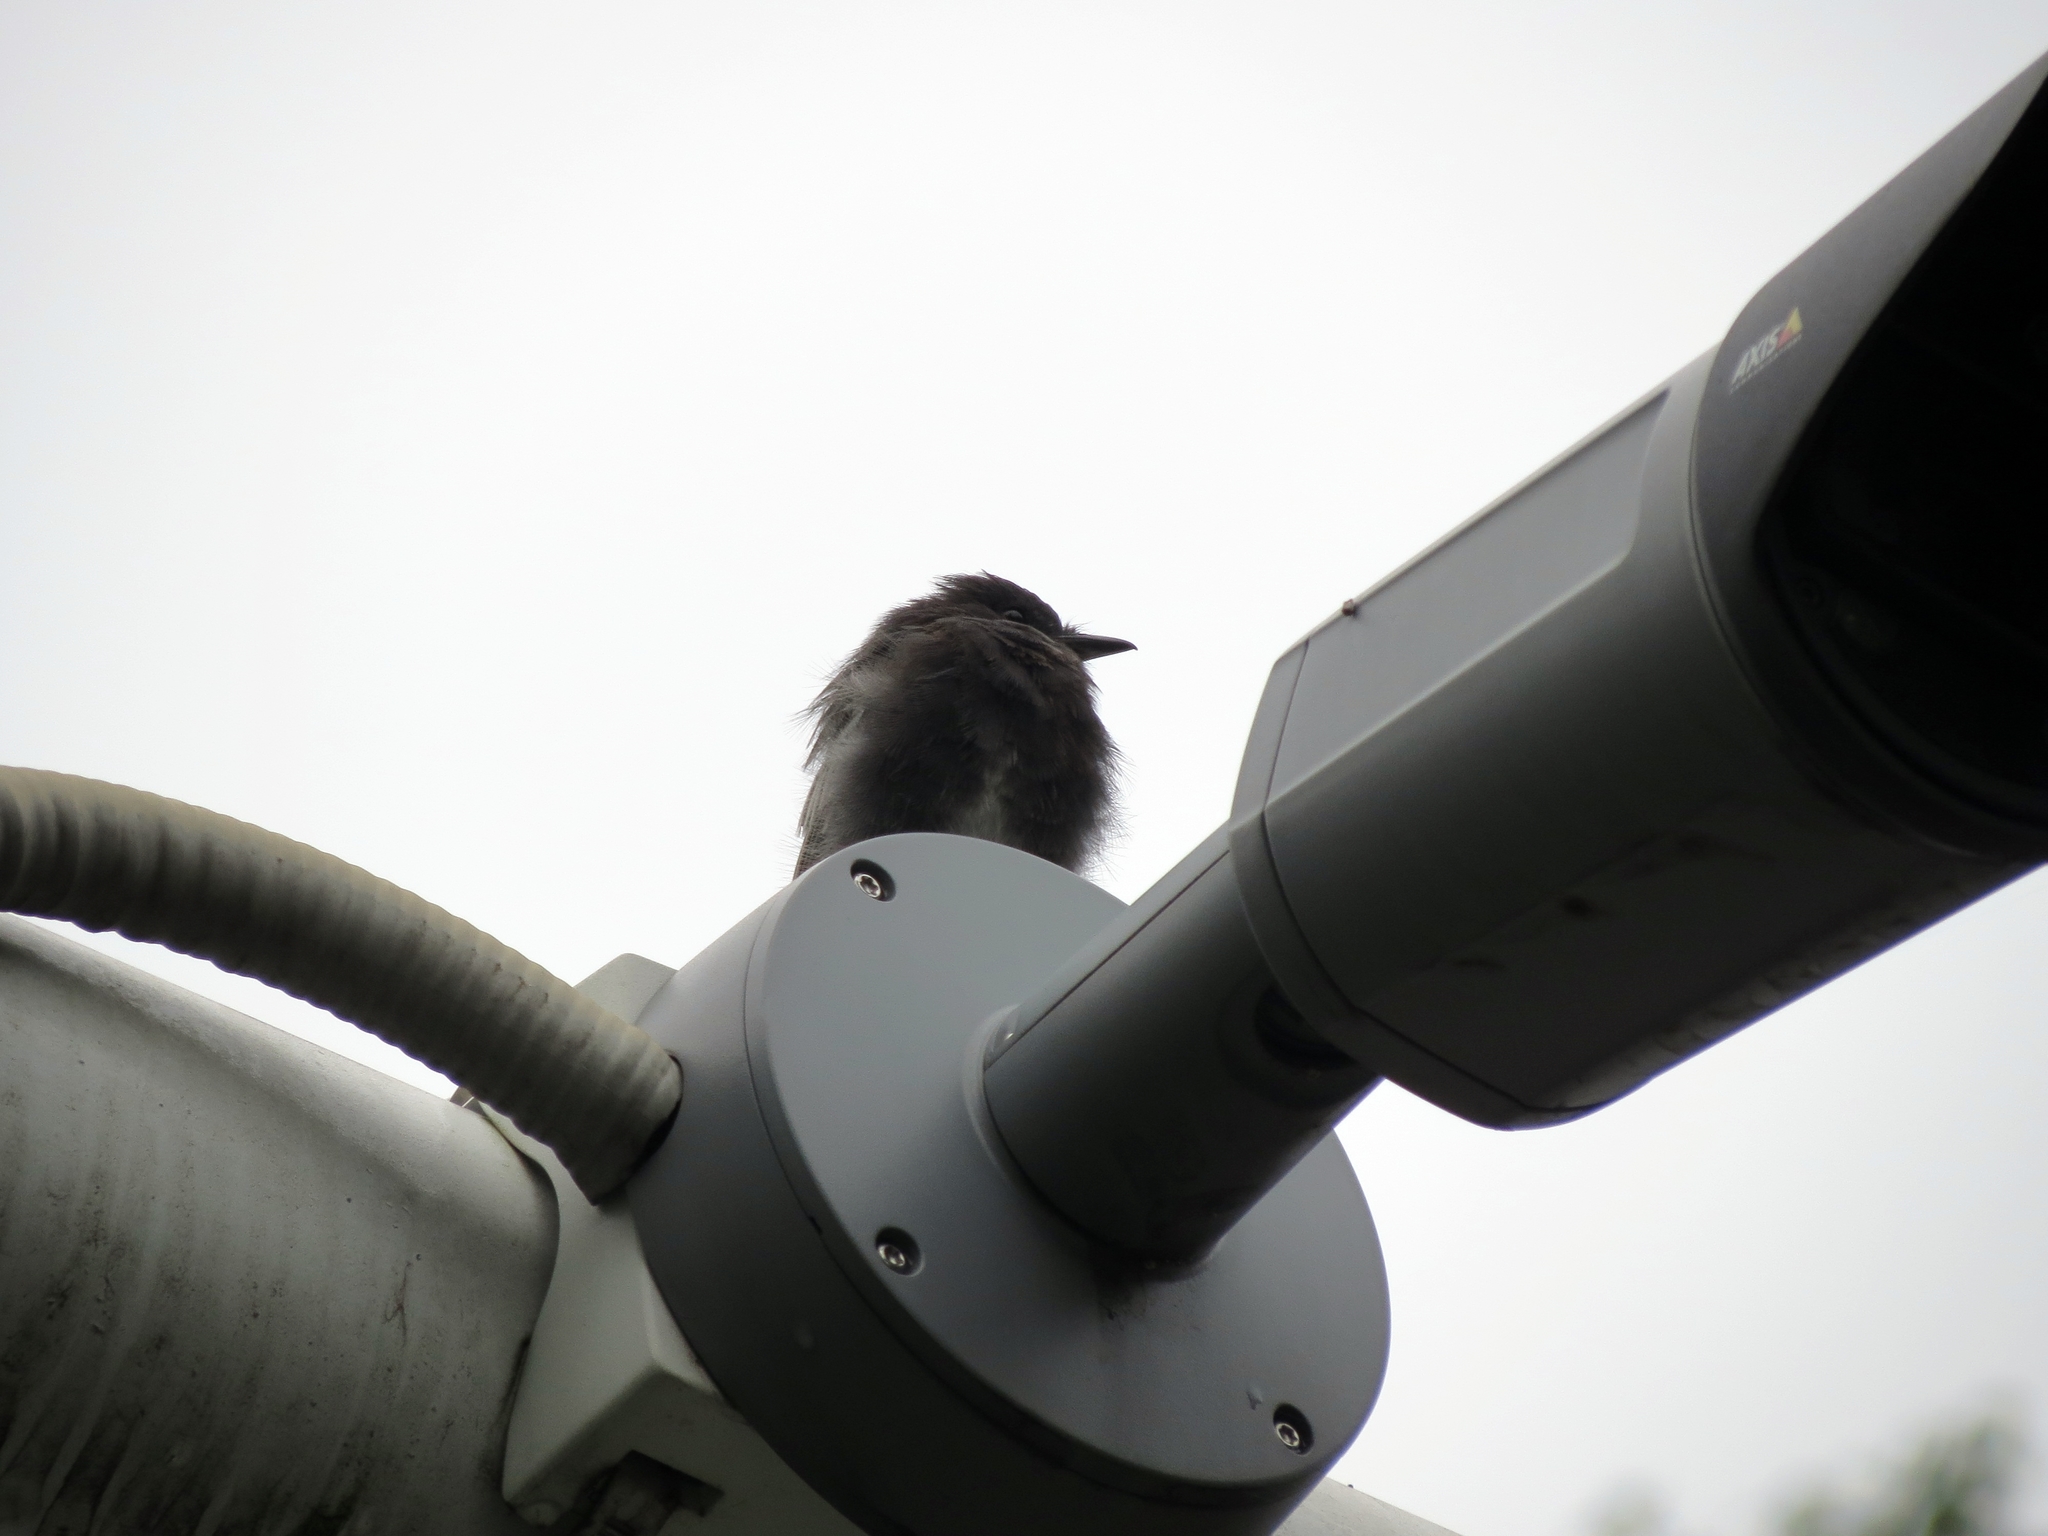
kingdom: Animalia
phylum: Chordata
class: Aves
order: Passeriformes
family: Tyrannidae
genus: Sayornis
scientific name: Sayornis nigricans
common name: Black phoebe
